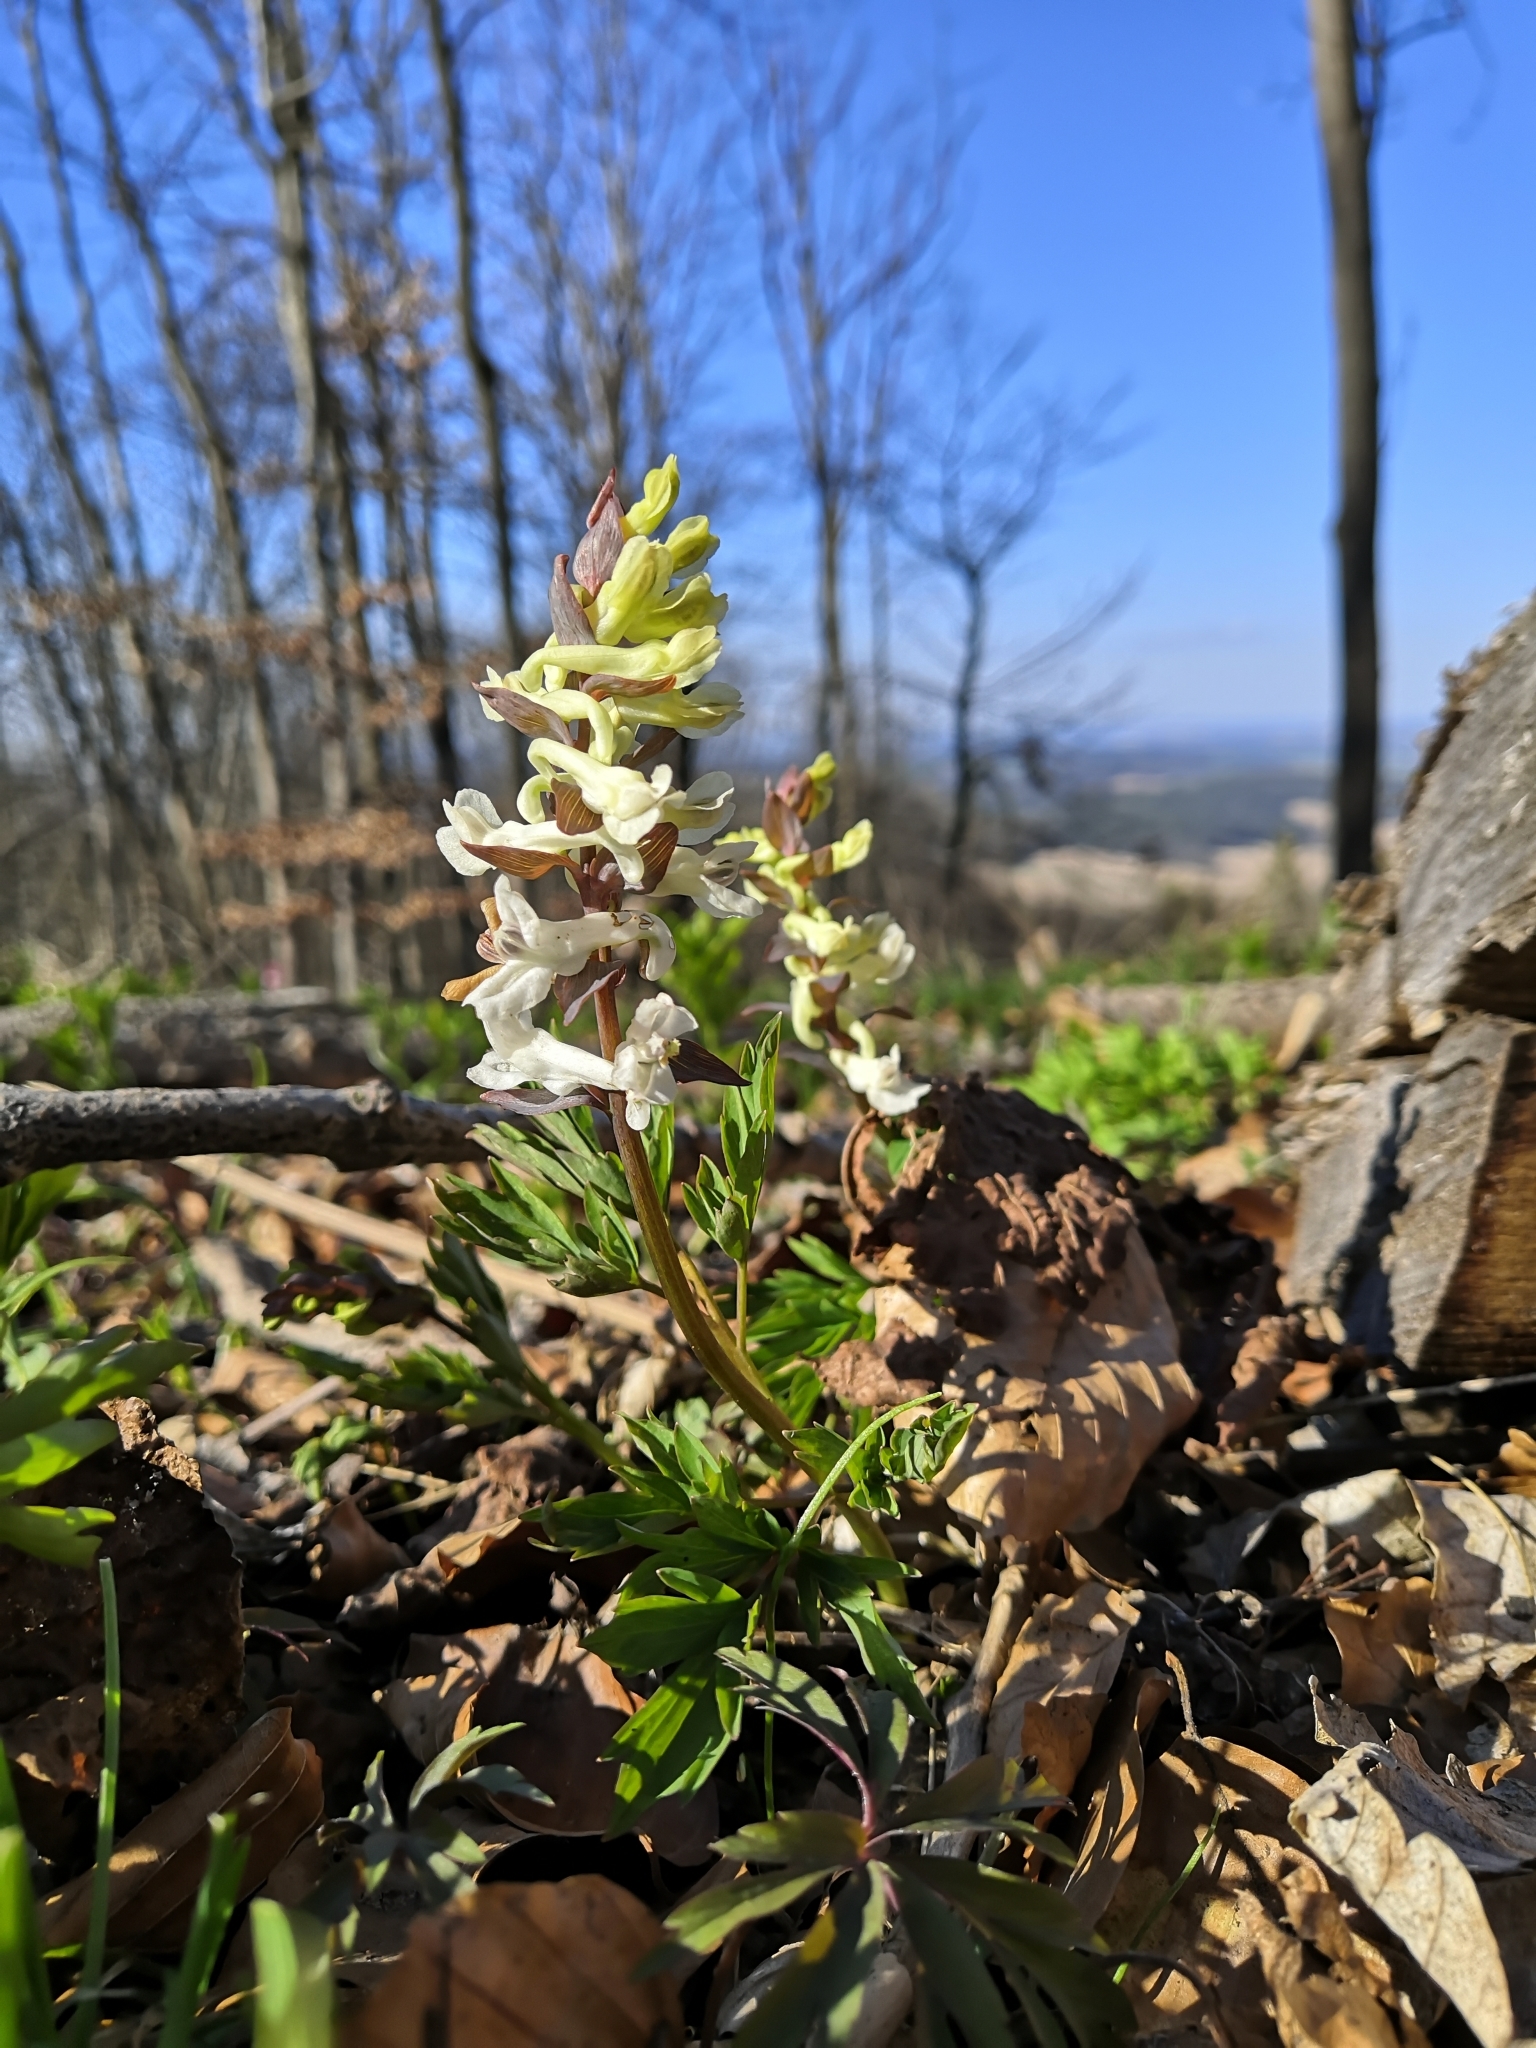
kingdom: Plantae
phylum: Tracheophyta
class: Magnoliopsida
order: Ranunculales
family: Papaveraceae
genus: Corydalis
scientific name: Corydalis cava
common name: Hollowroot
